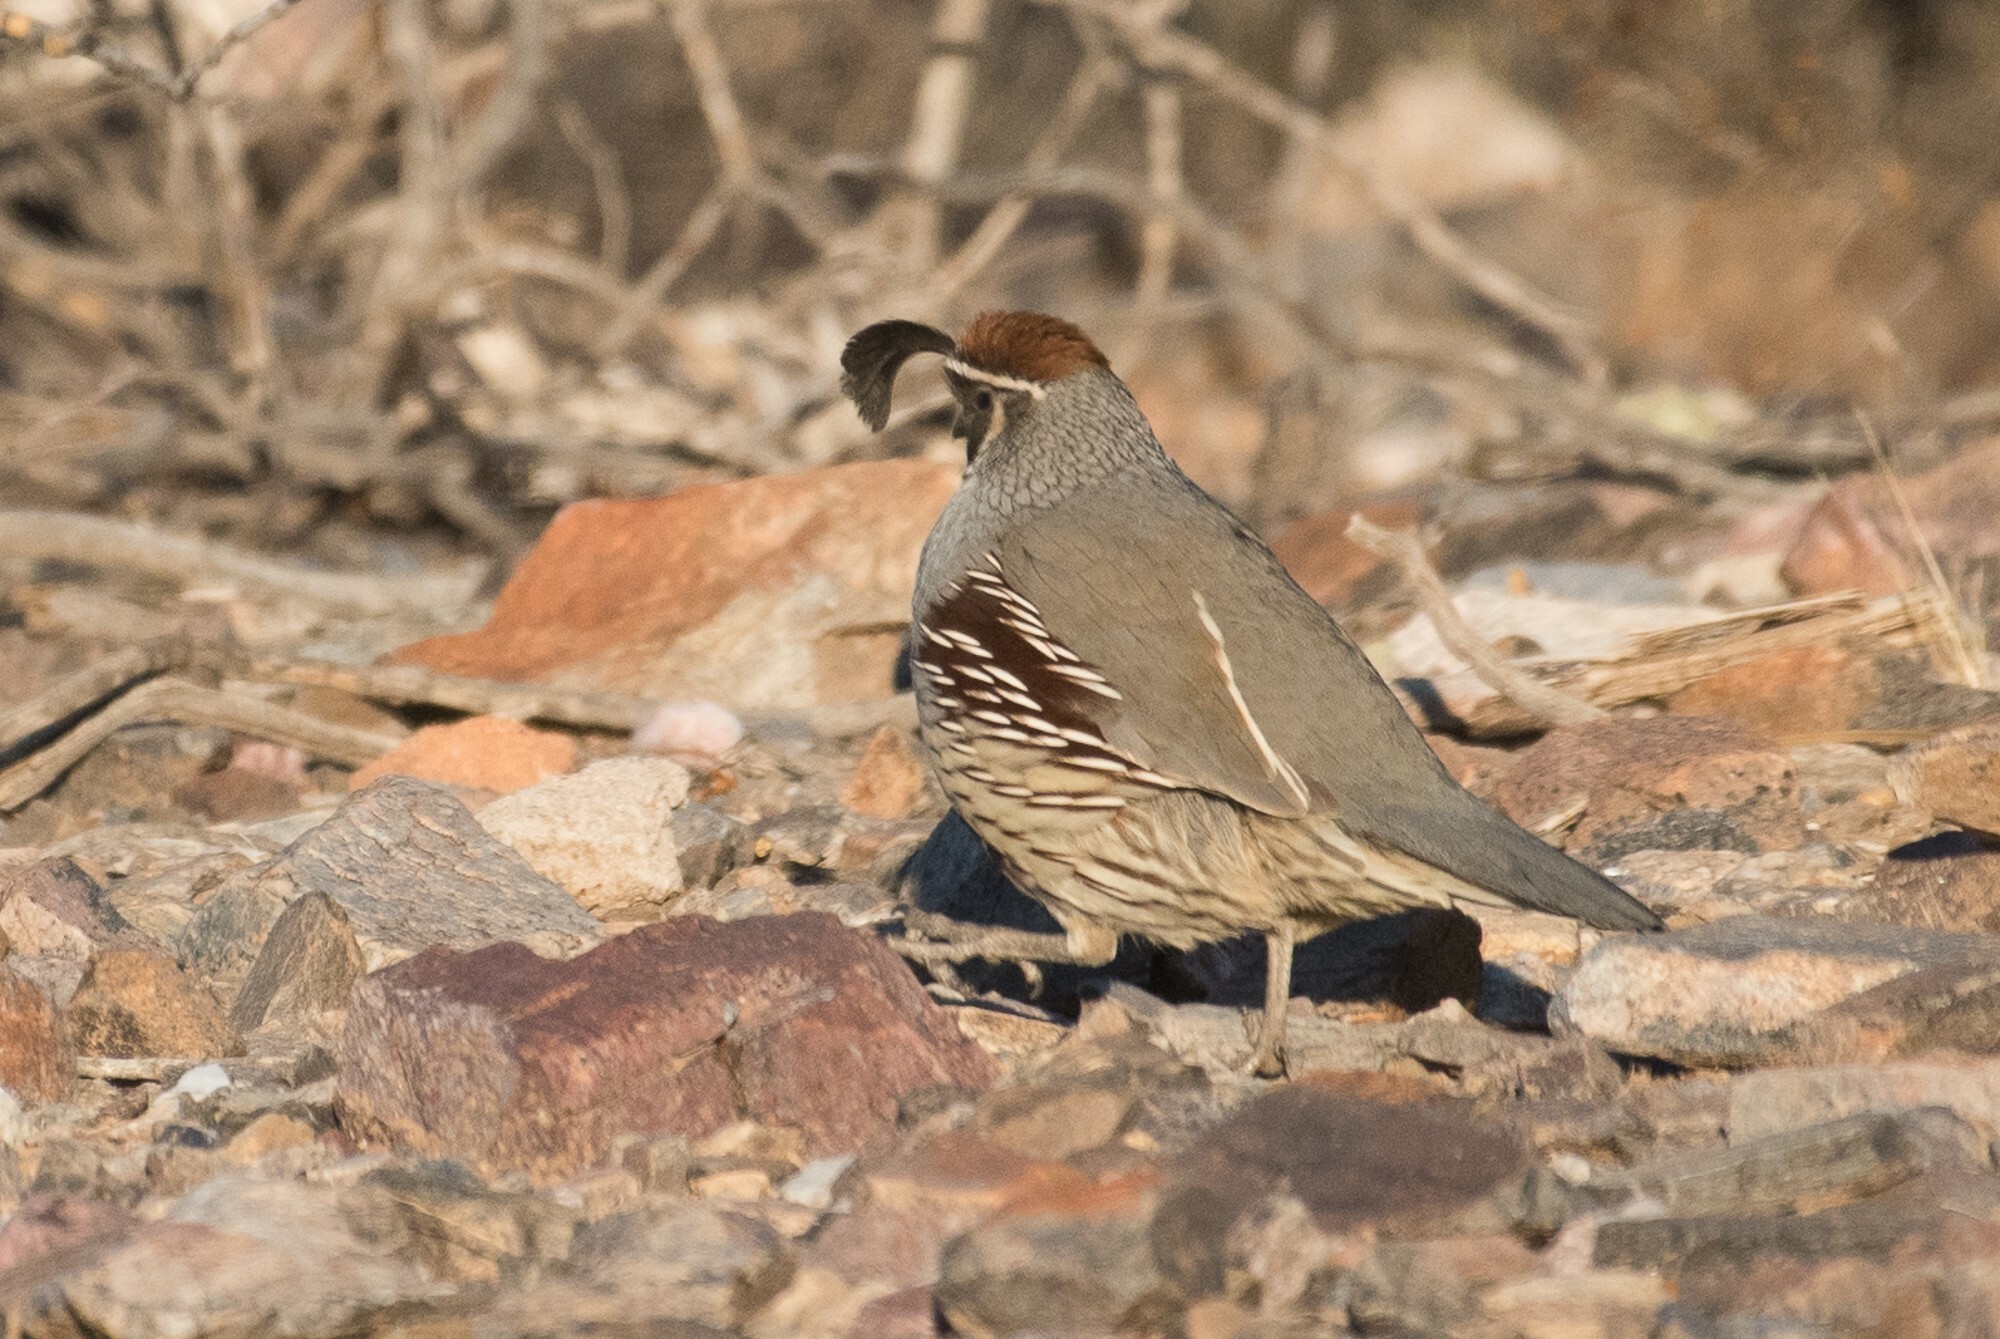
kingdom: Animalia
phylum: Chordata
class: Aves
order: Galliformes
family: Odontophoridae
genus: Callipepla
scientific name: Callipepla gambelii
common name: Gambel's quail
